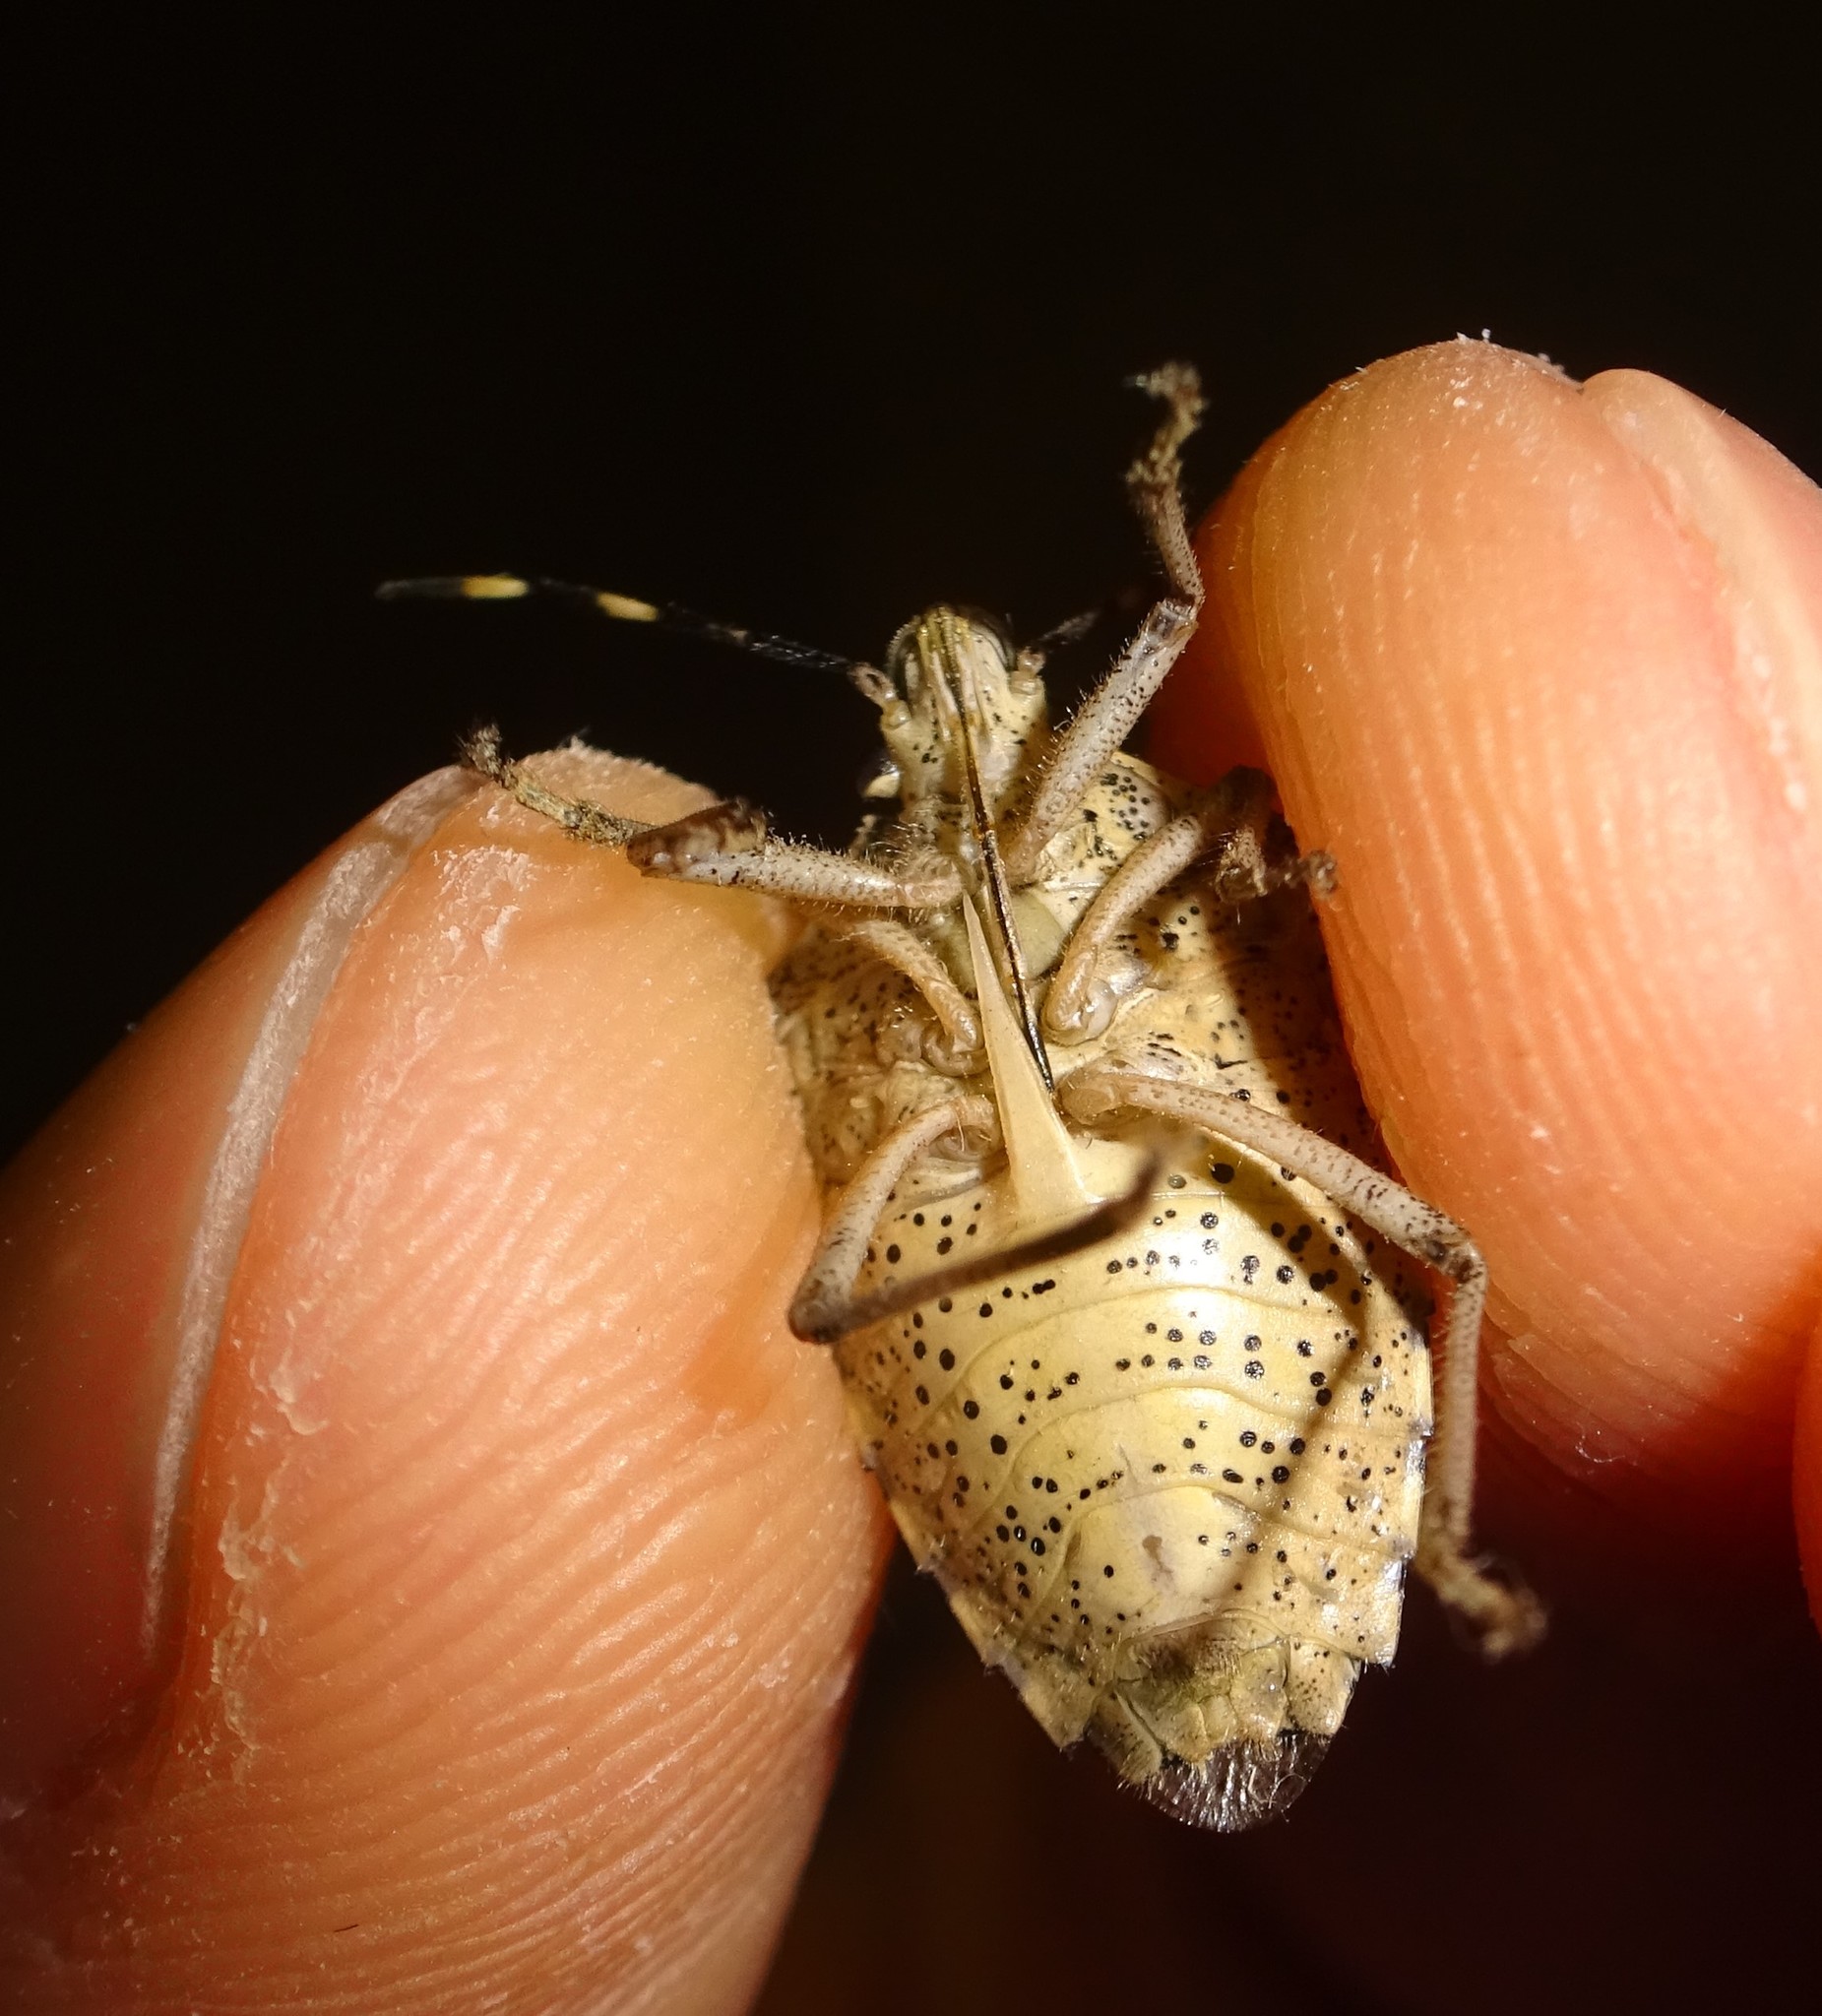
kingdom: Animalia
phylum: Arthropoda
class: Insecta
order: Hemiptera
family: Pentatomidae
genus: Rhaphigaster
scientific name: Rhaphigaster nebulosa
